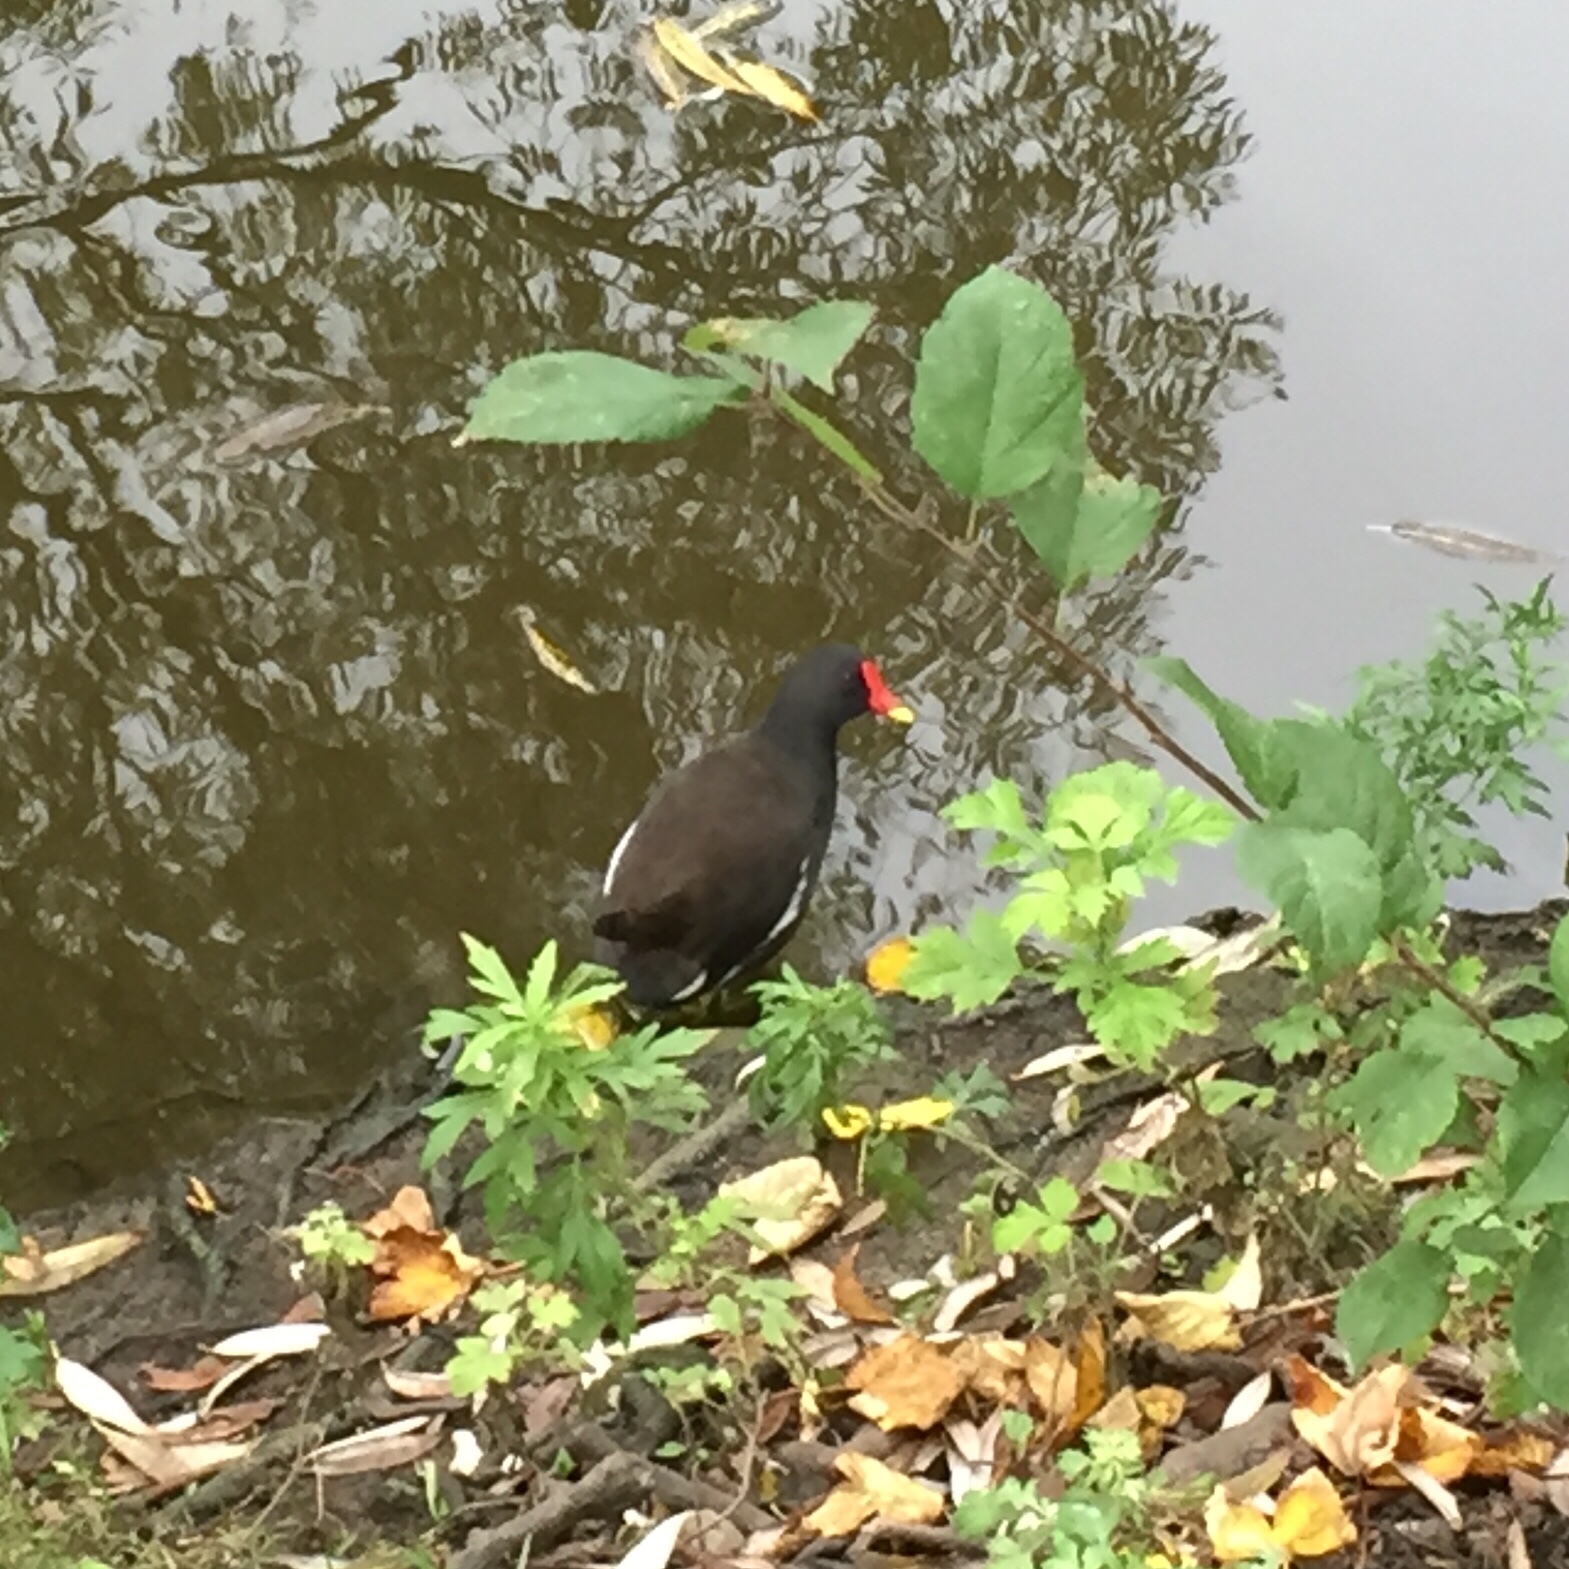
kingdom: Animalia
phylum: Chordata
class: Aves
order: Gruiformes
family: Rallidae
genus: Gallinula
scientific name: Gallinula chloropus
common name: Common moorhen
